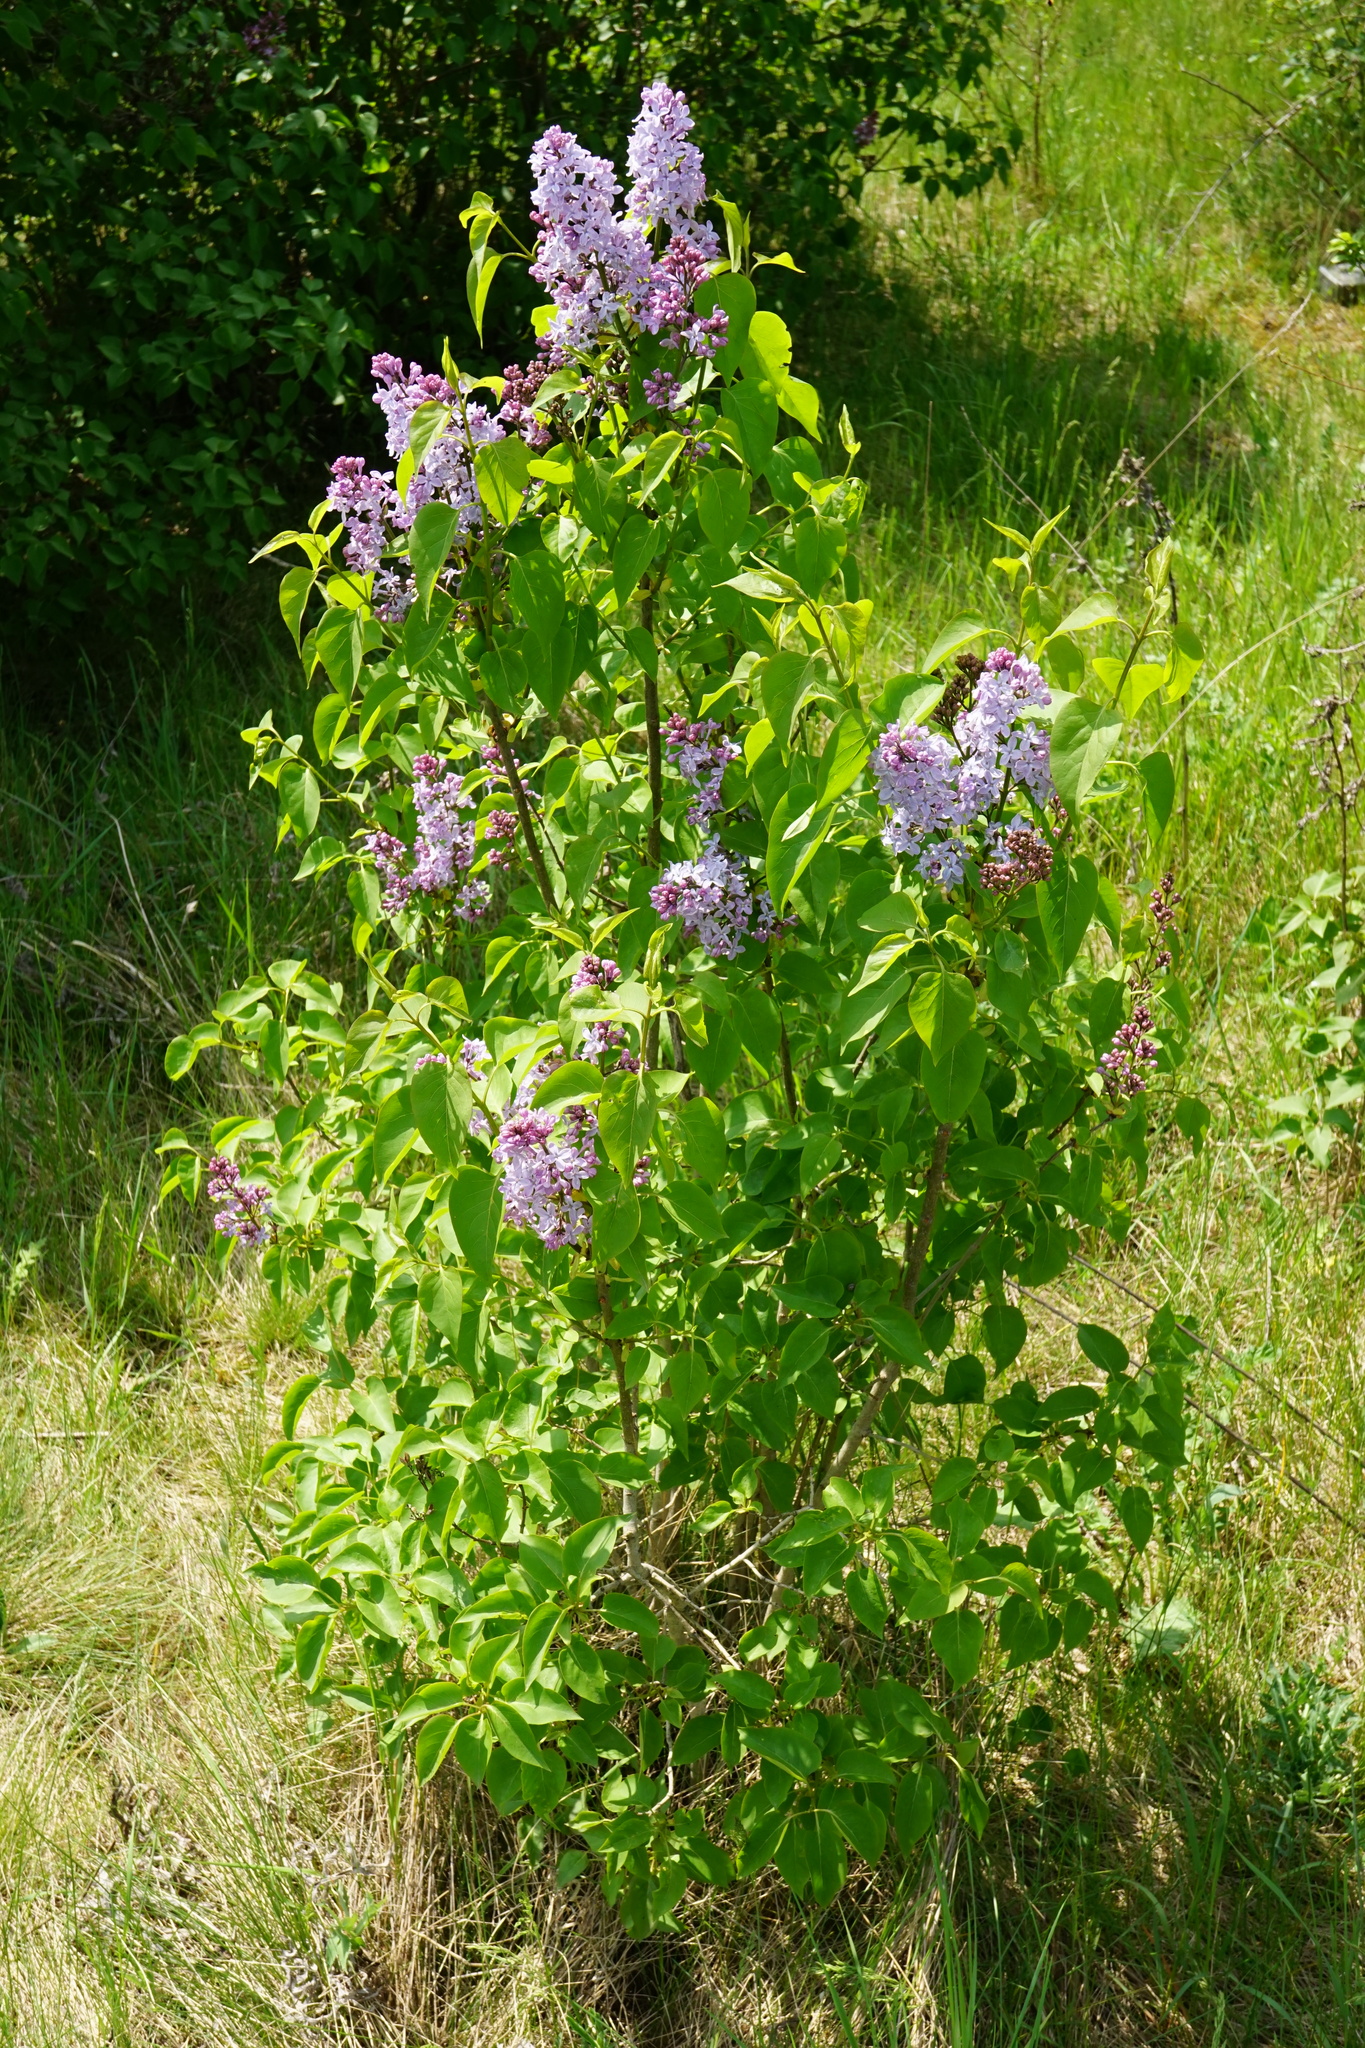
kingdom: Plantae
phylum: Tracheophyta
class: Magnoliopsida
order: Lamiales
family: Oleaceae
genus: Syringa
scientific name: Syringa vulgaris
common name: Common lilac
